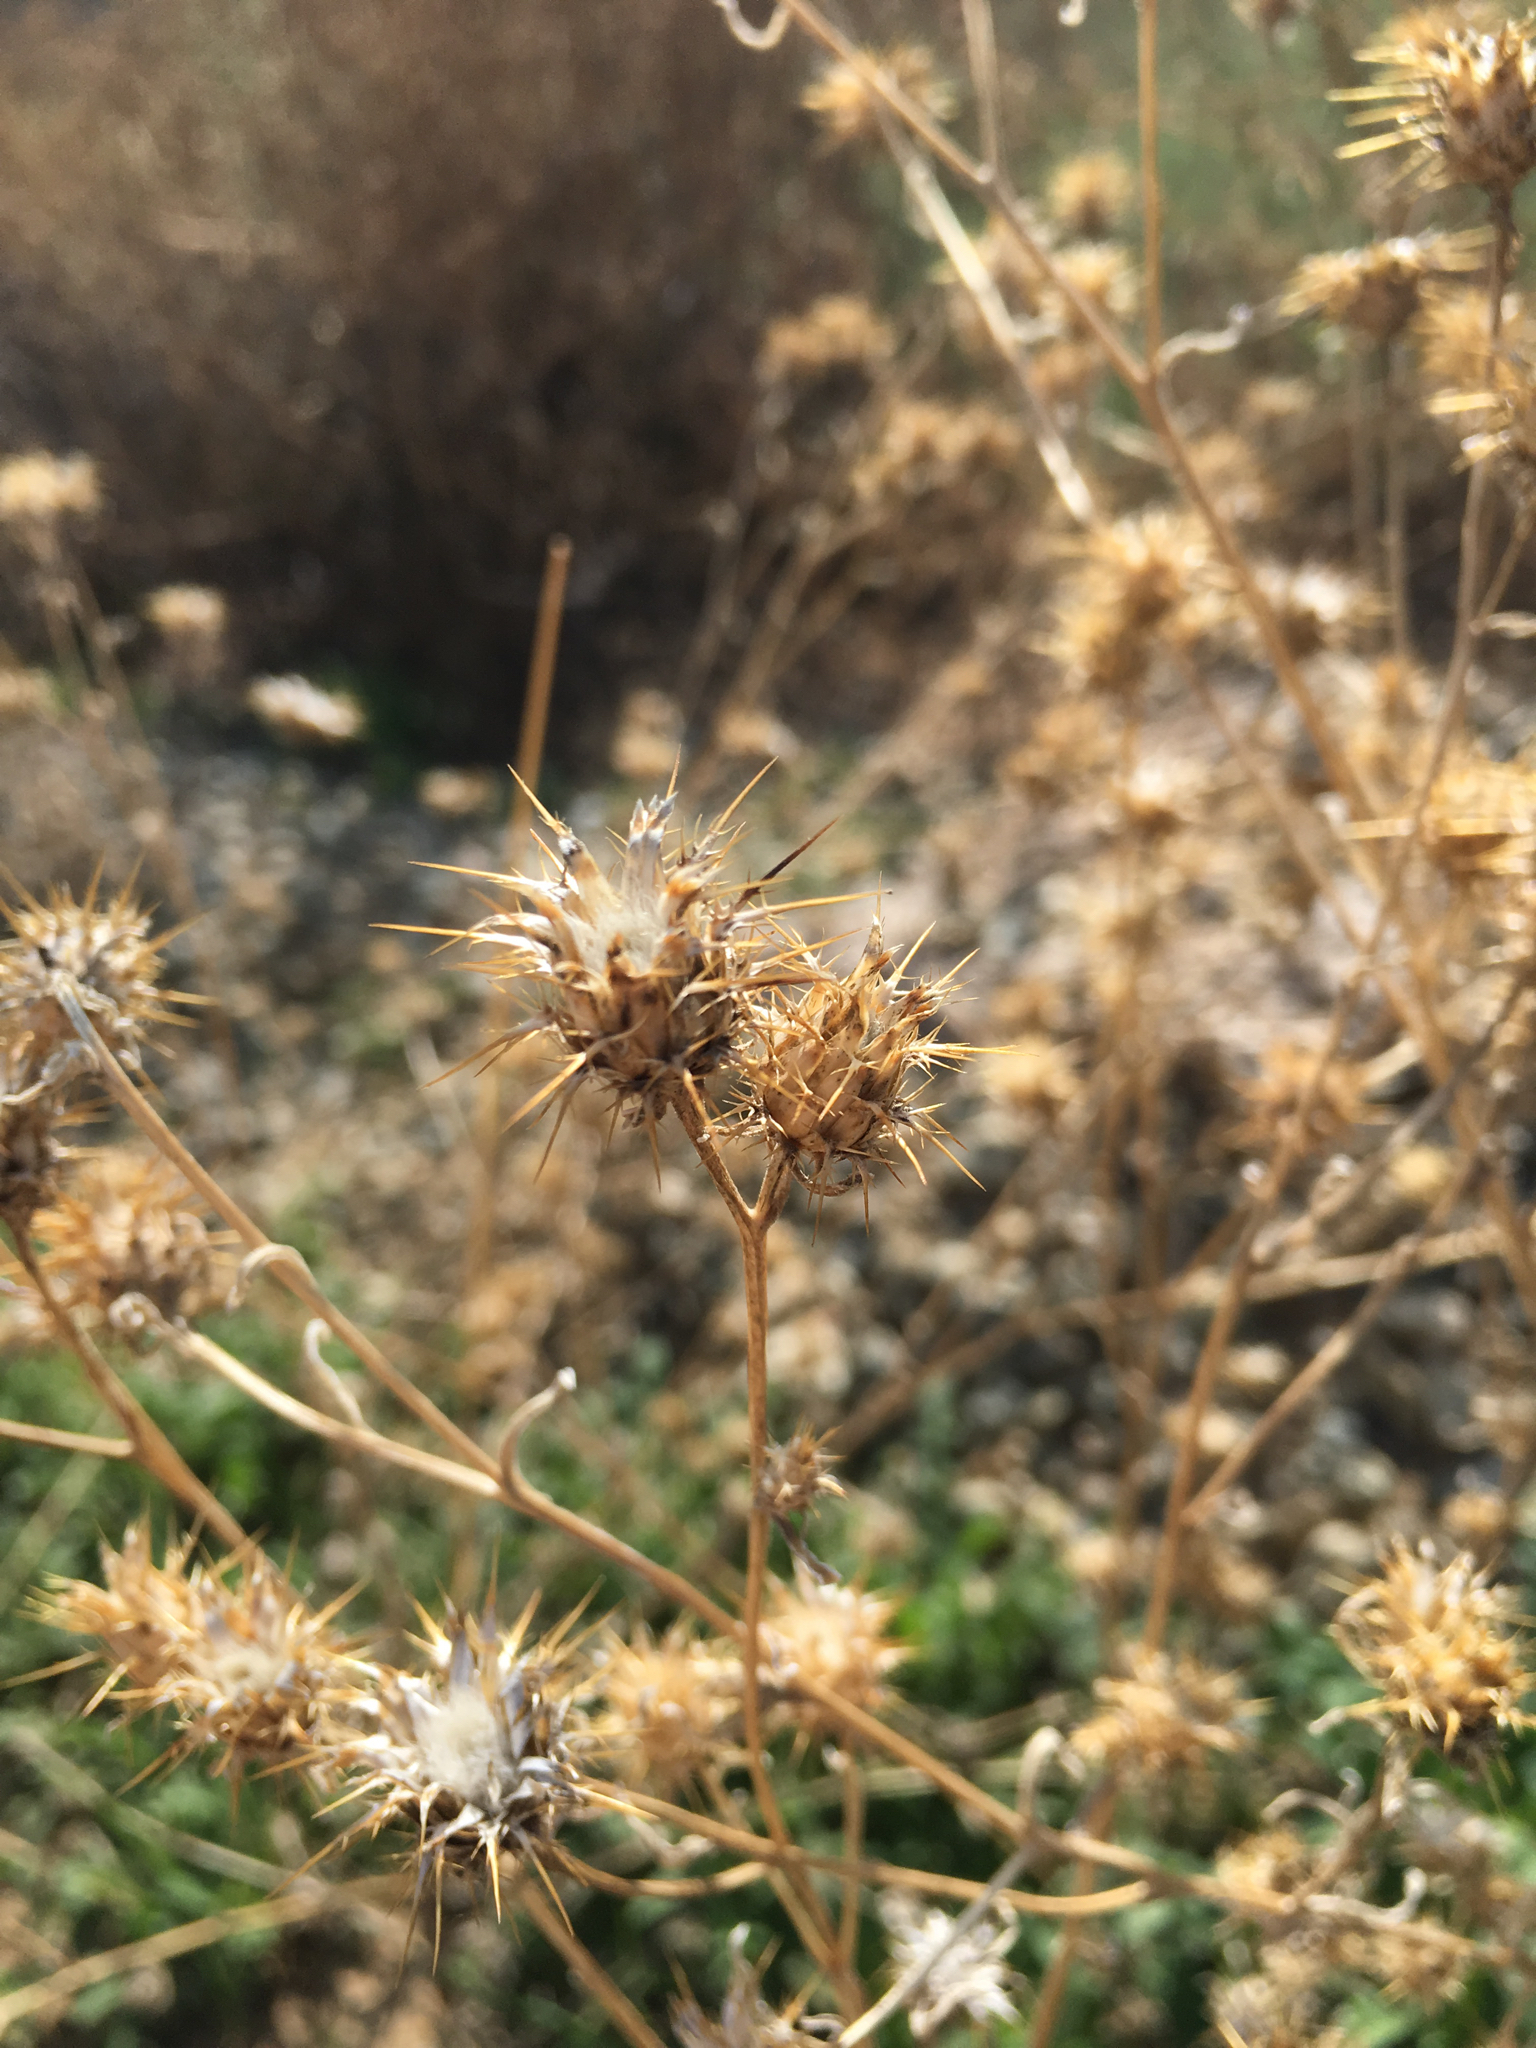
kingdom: Plantae
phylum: Tracheophyta
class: Magnoliopsida
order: Asterales
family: Asteraceae
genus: Centaurea
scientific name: Centaurea melitensis
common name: Maltese star-thistle
